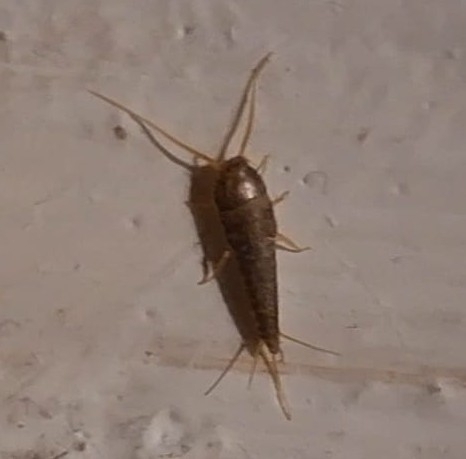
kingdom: Animalia
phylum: Arthropoda
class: Insecta
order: Zygentoma
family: Lepismatidae
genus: Lepisma
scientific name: Lepisma saccharinum
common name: Silverfish
